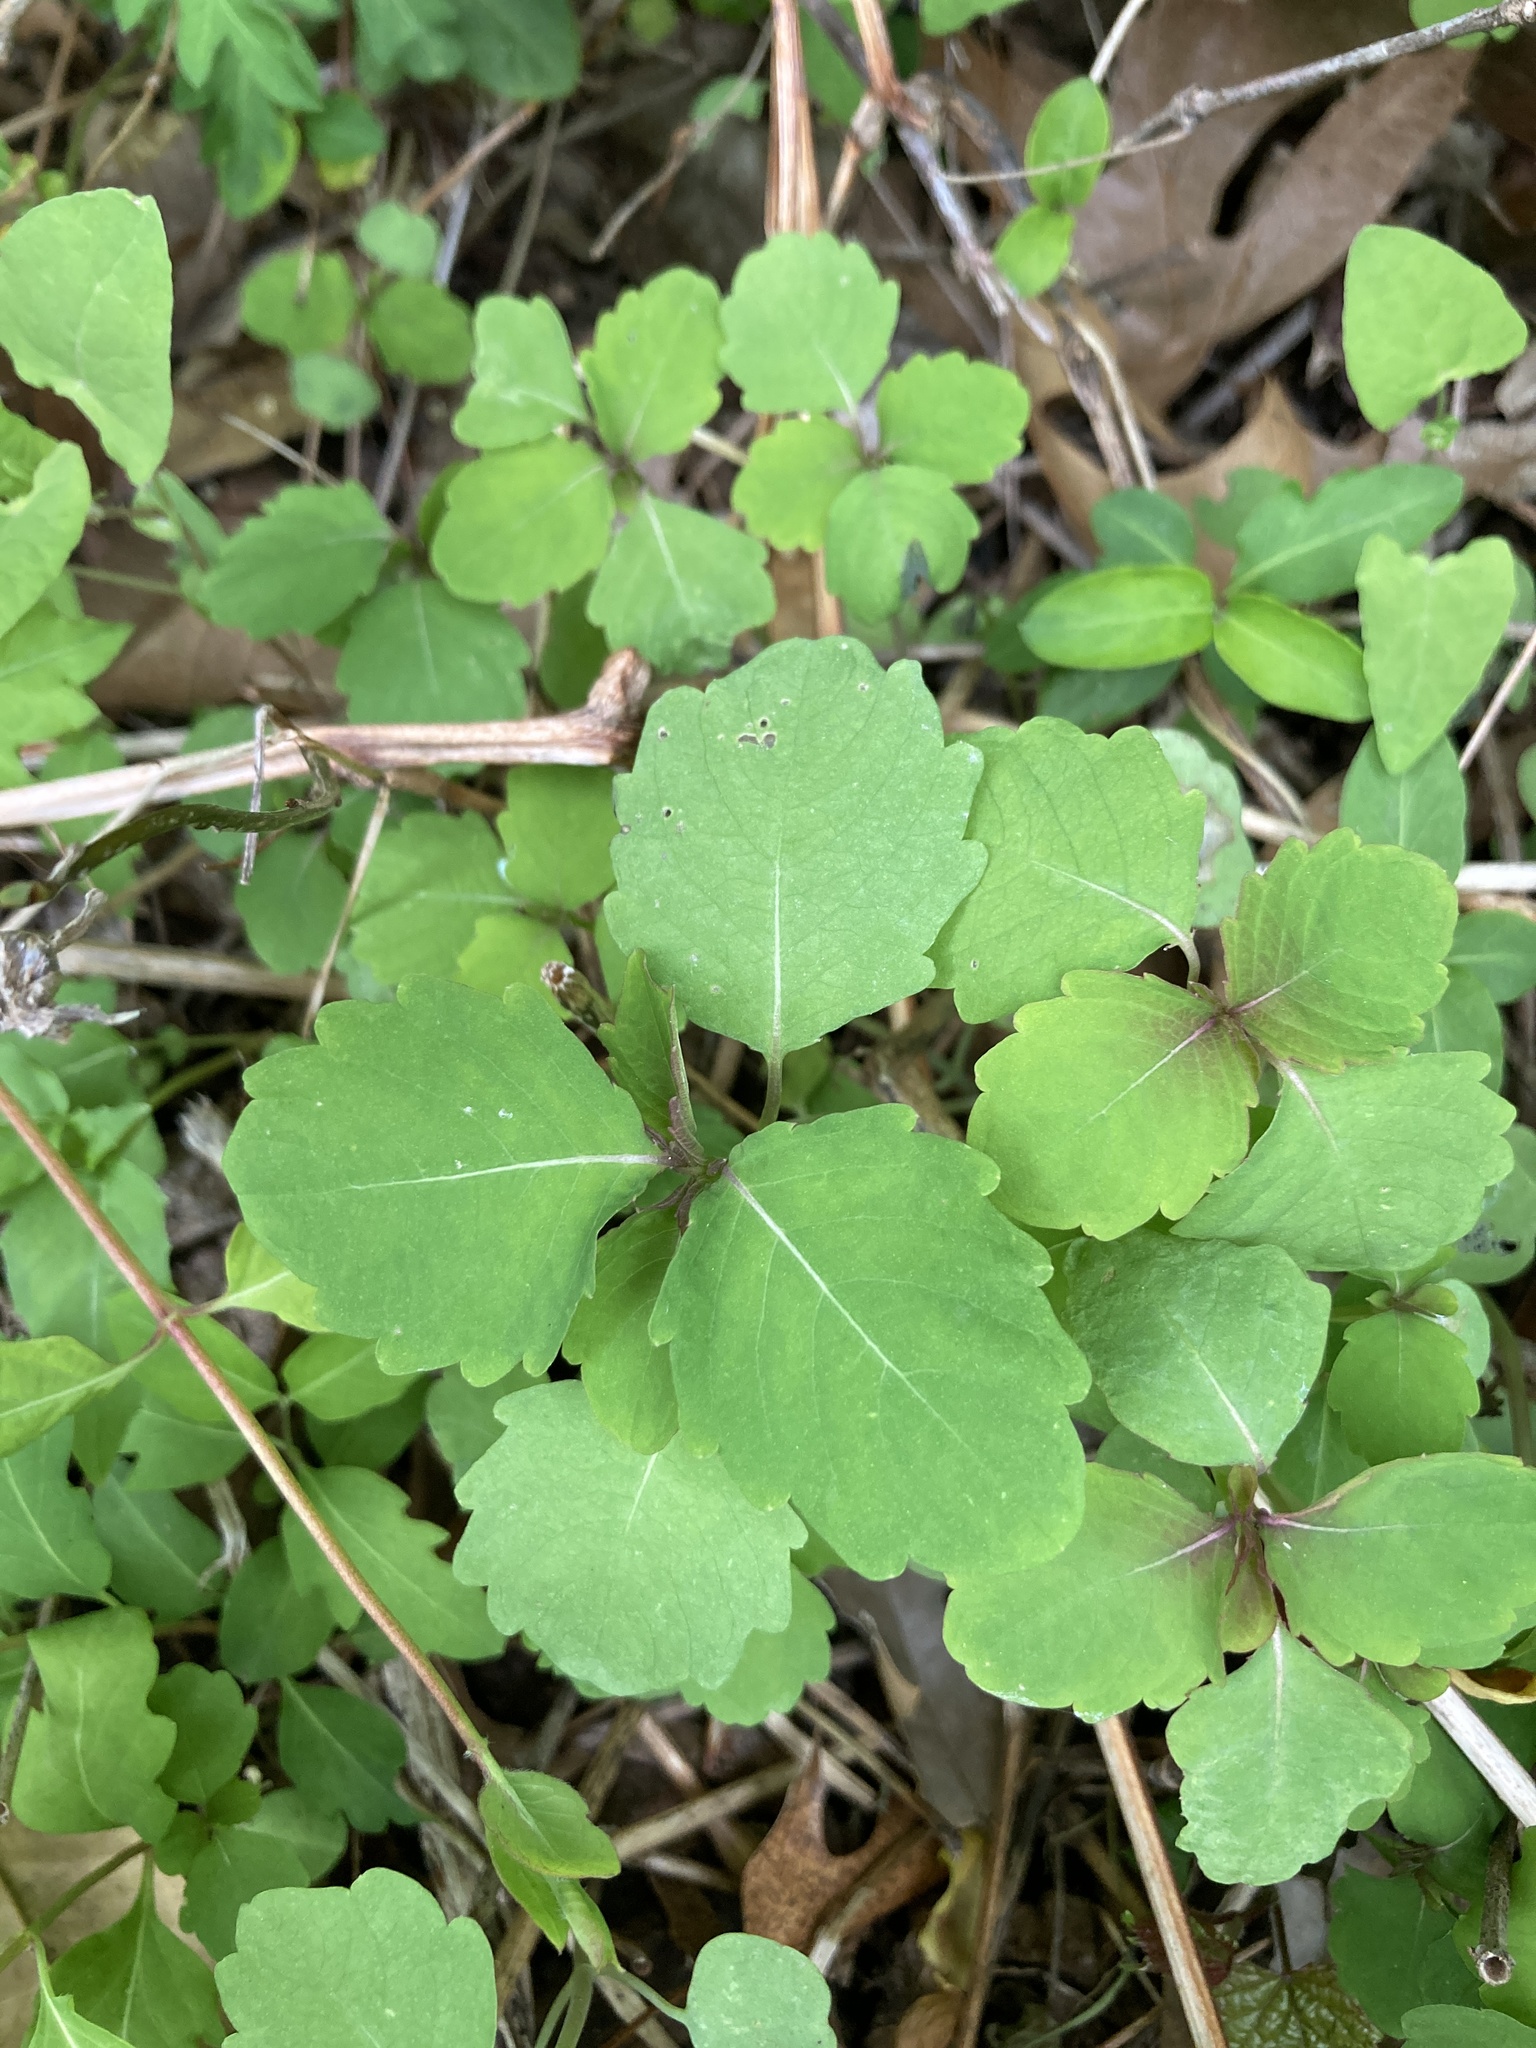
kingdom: Plantae
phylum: Tracheophyta
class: Magnoliopsida
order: Ericales
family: Balsaminaceae
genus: Impatiens
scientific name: Impatiens capensis
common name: Orange balsam
